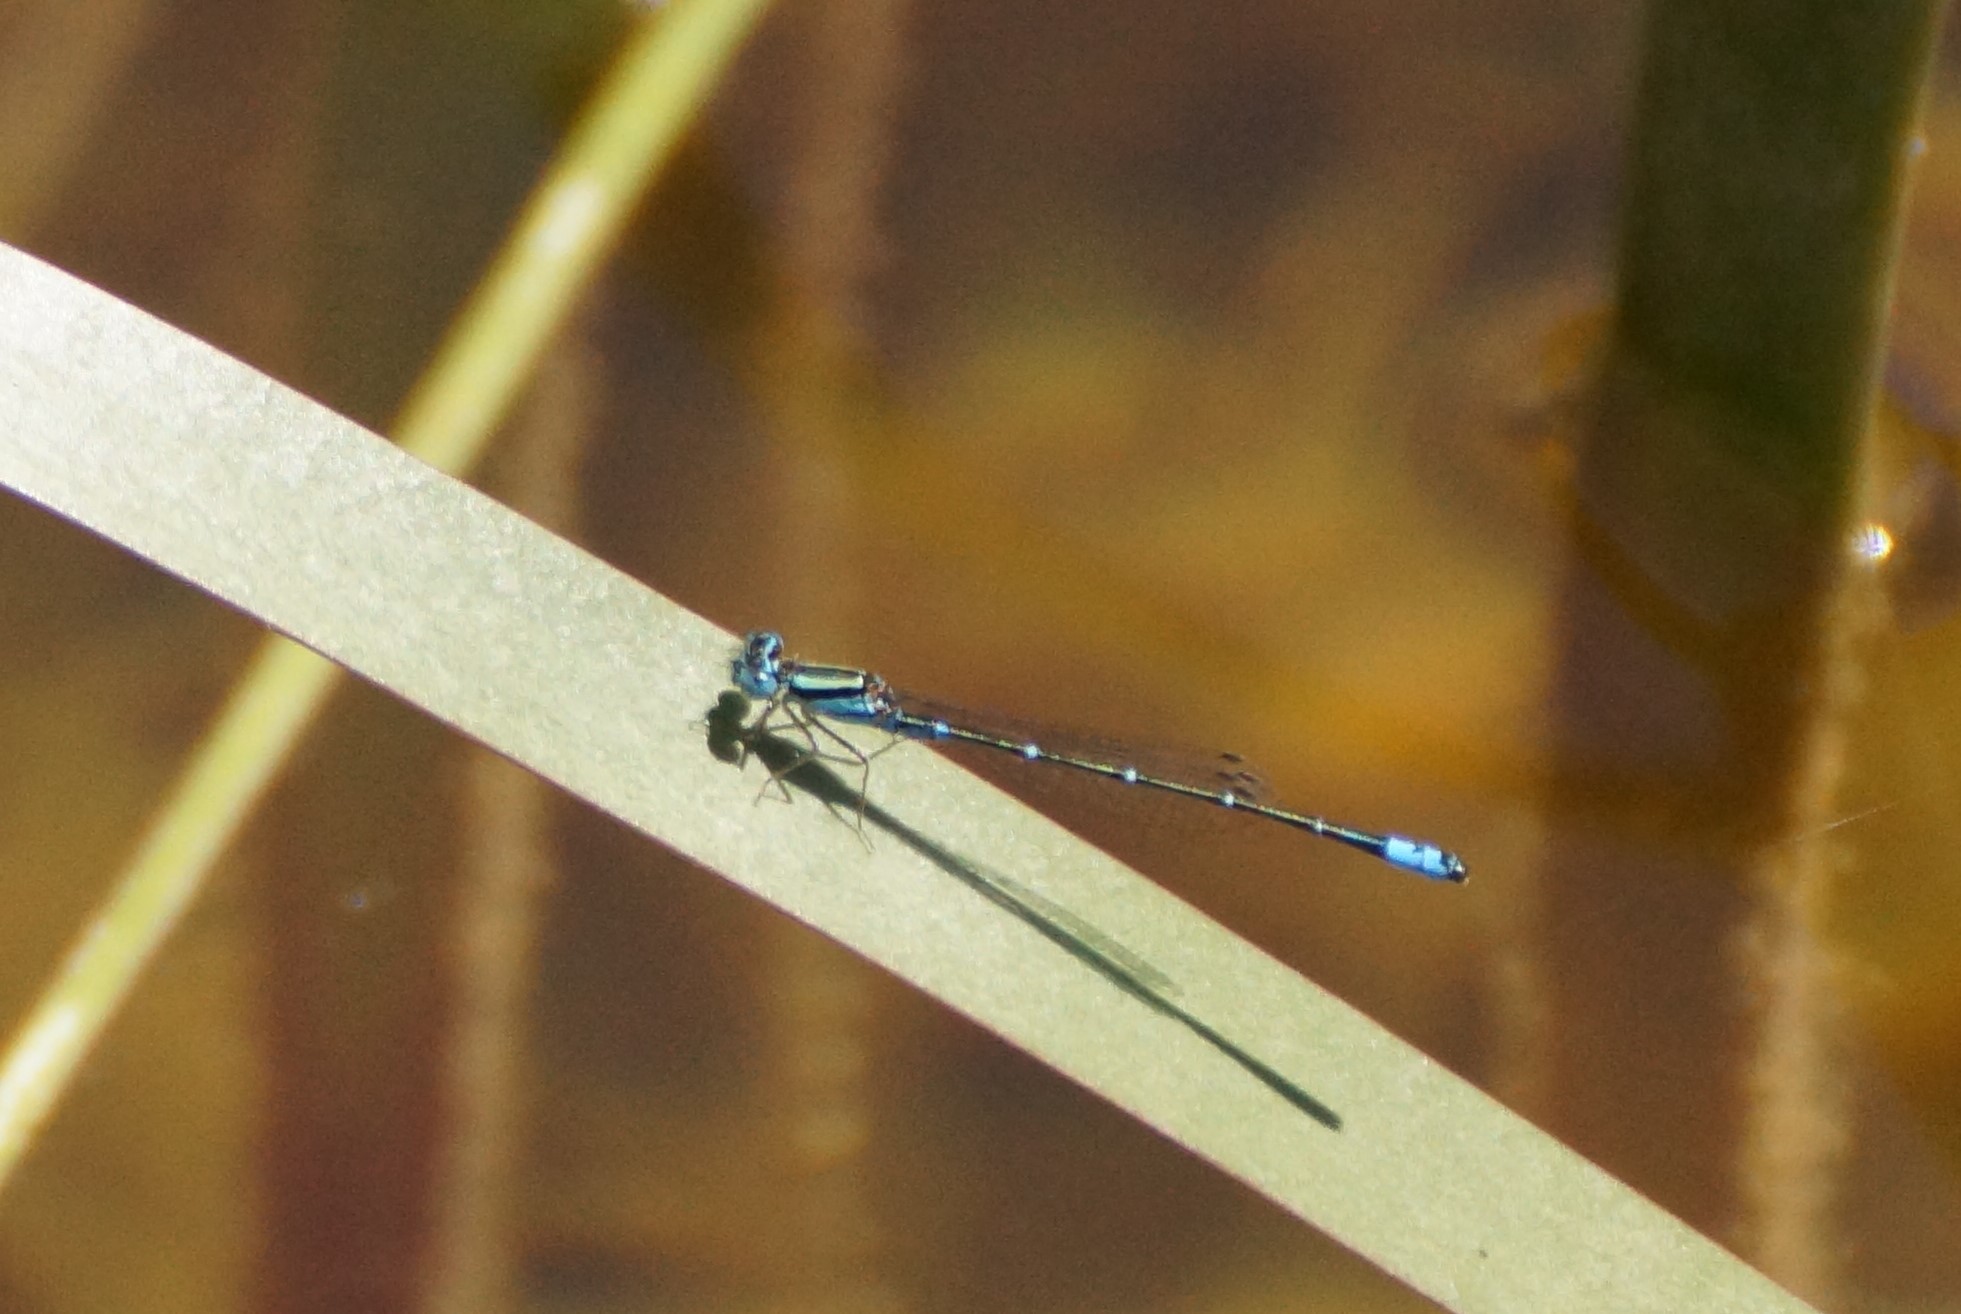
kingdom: Animalia
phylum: Arthropoda
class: Insecta
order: Odonata
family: Coenagrionidae
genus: Austroagrion
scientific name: Austroagrion watsoni
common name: Eastern billabongfly
